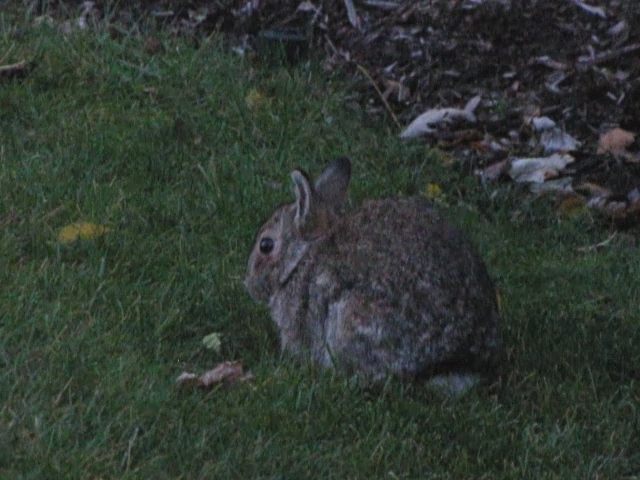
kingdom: Animalia
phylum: Chordata
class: Mammalia
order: Lagomorpha
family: Leporidae
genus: Sylvilagus
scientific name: Sylvilagus floridanus
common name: Eastern cottontail
